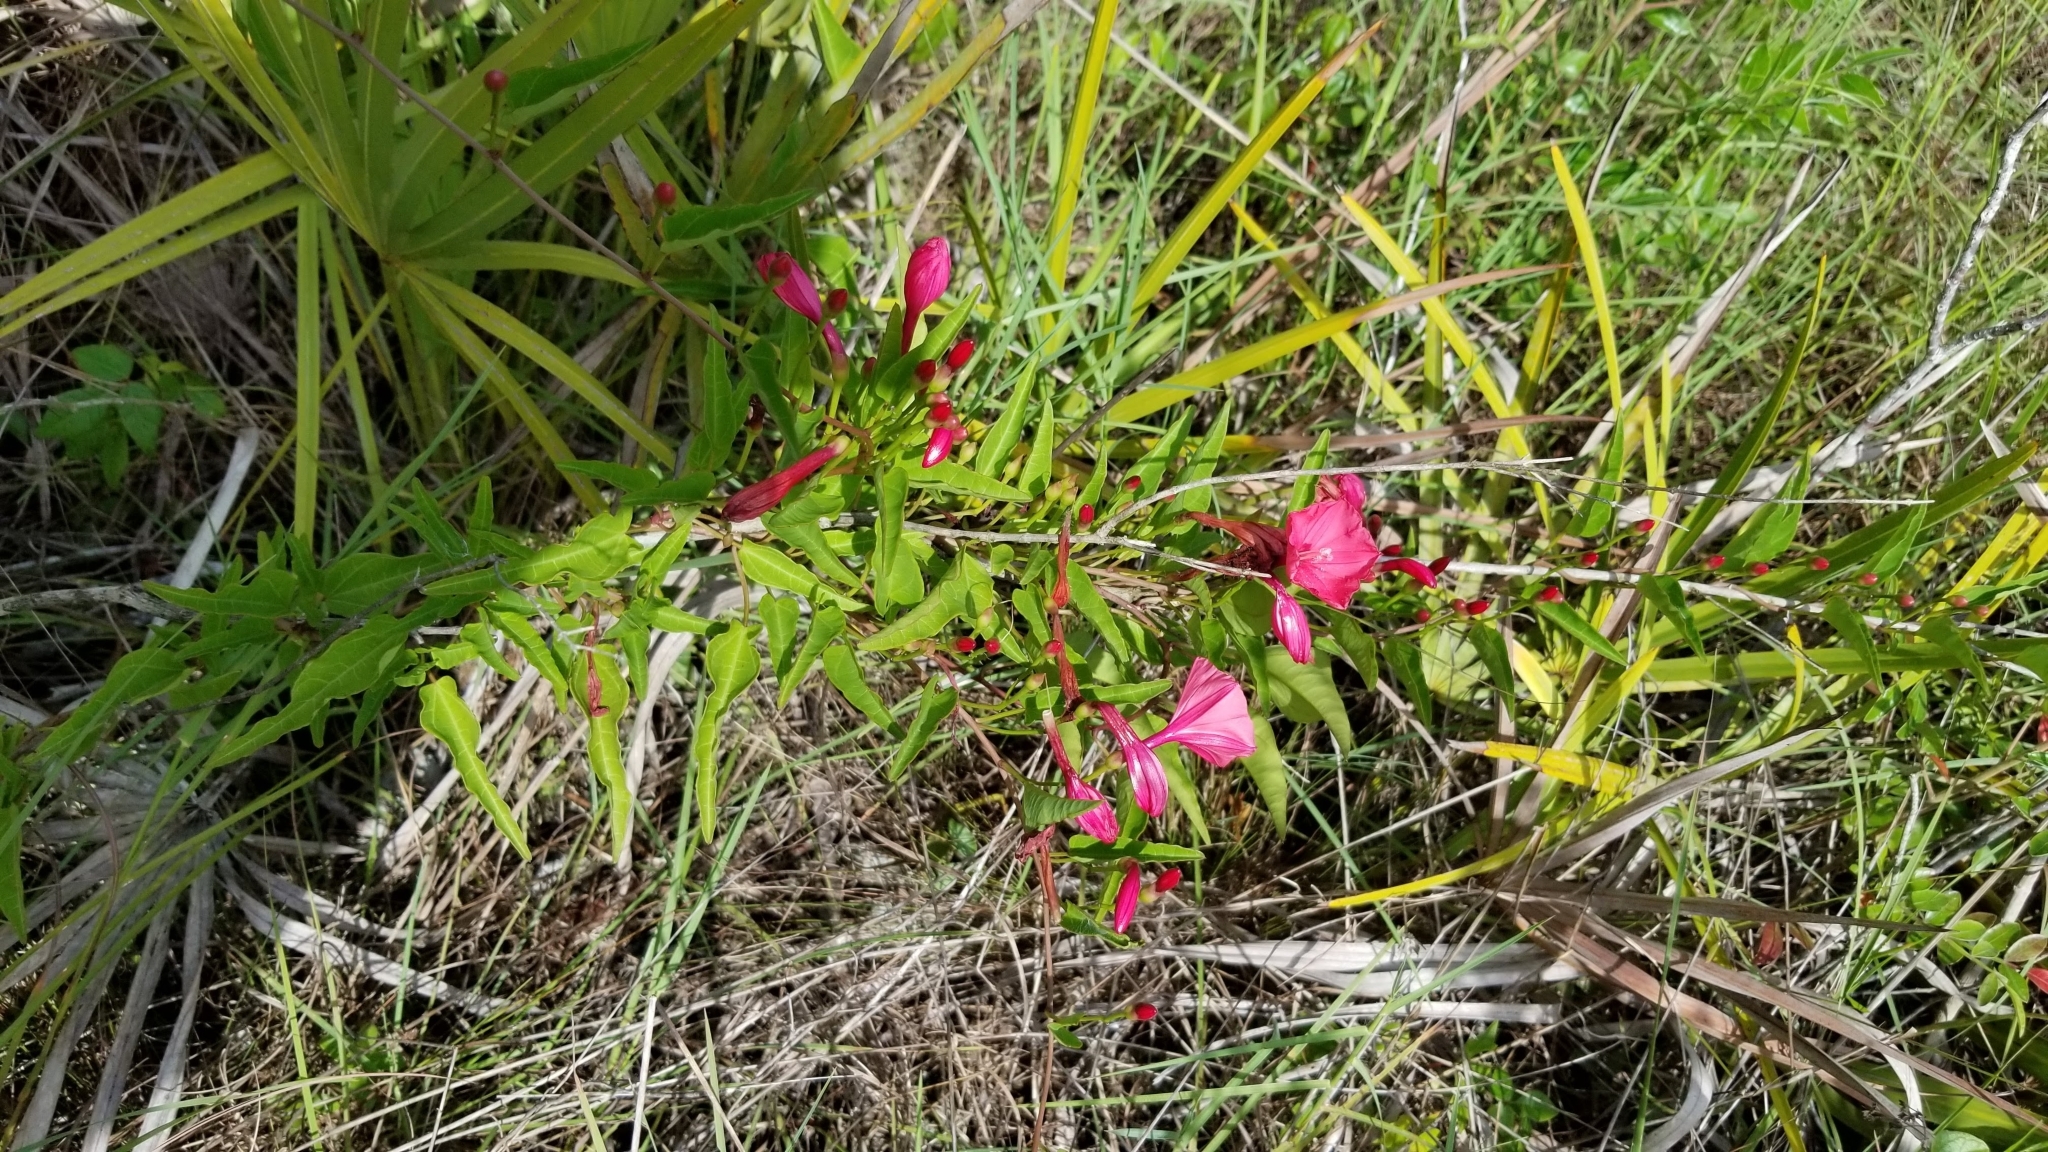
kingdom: Plantae
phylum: Tracheophyta
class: Magnoliopsida
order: Solanales
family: Convolvulaceae
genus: Ipomoea
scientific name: Ipomoea microdactyla
